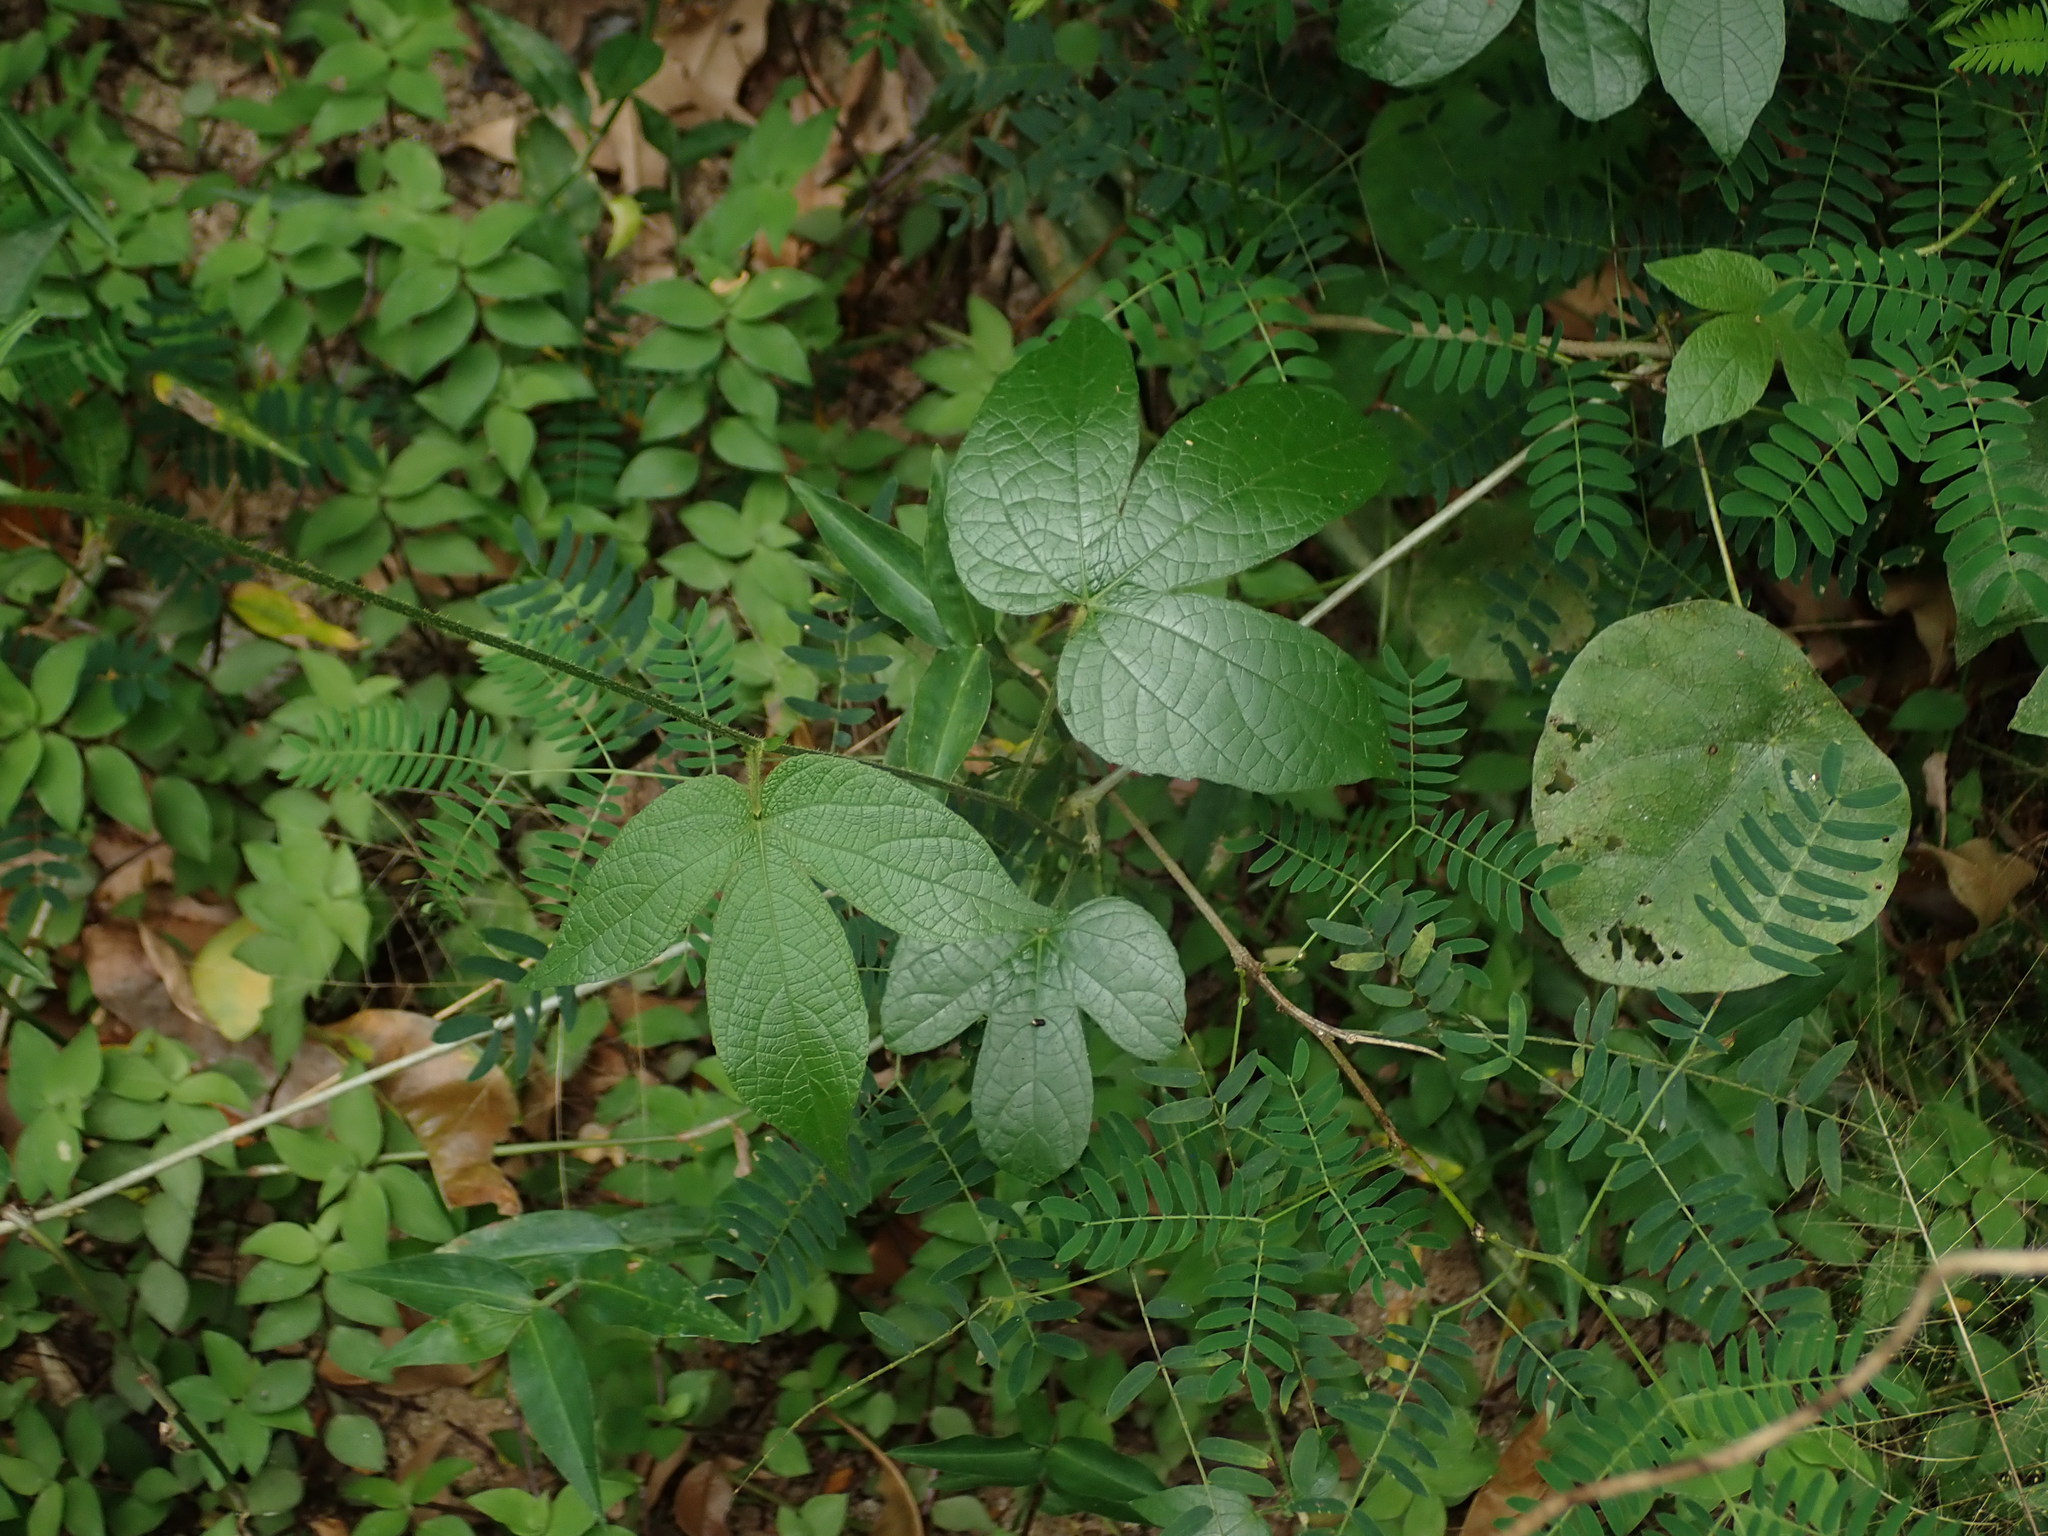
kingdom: Plantae
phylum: Tracheophyta
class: Magnoliopsida
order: Malpighiales
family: Euphorbiaceae
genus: Dalechampia
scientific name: Dalechampia scandens
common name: Spurgecreeper
